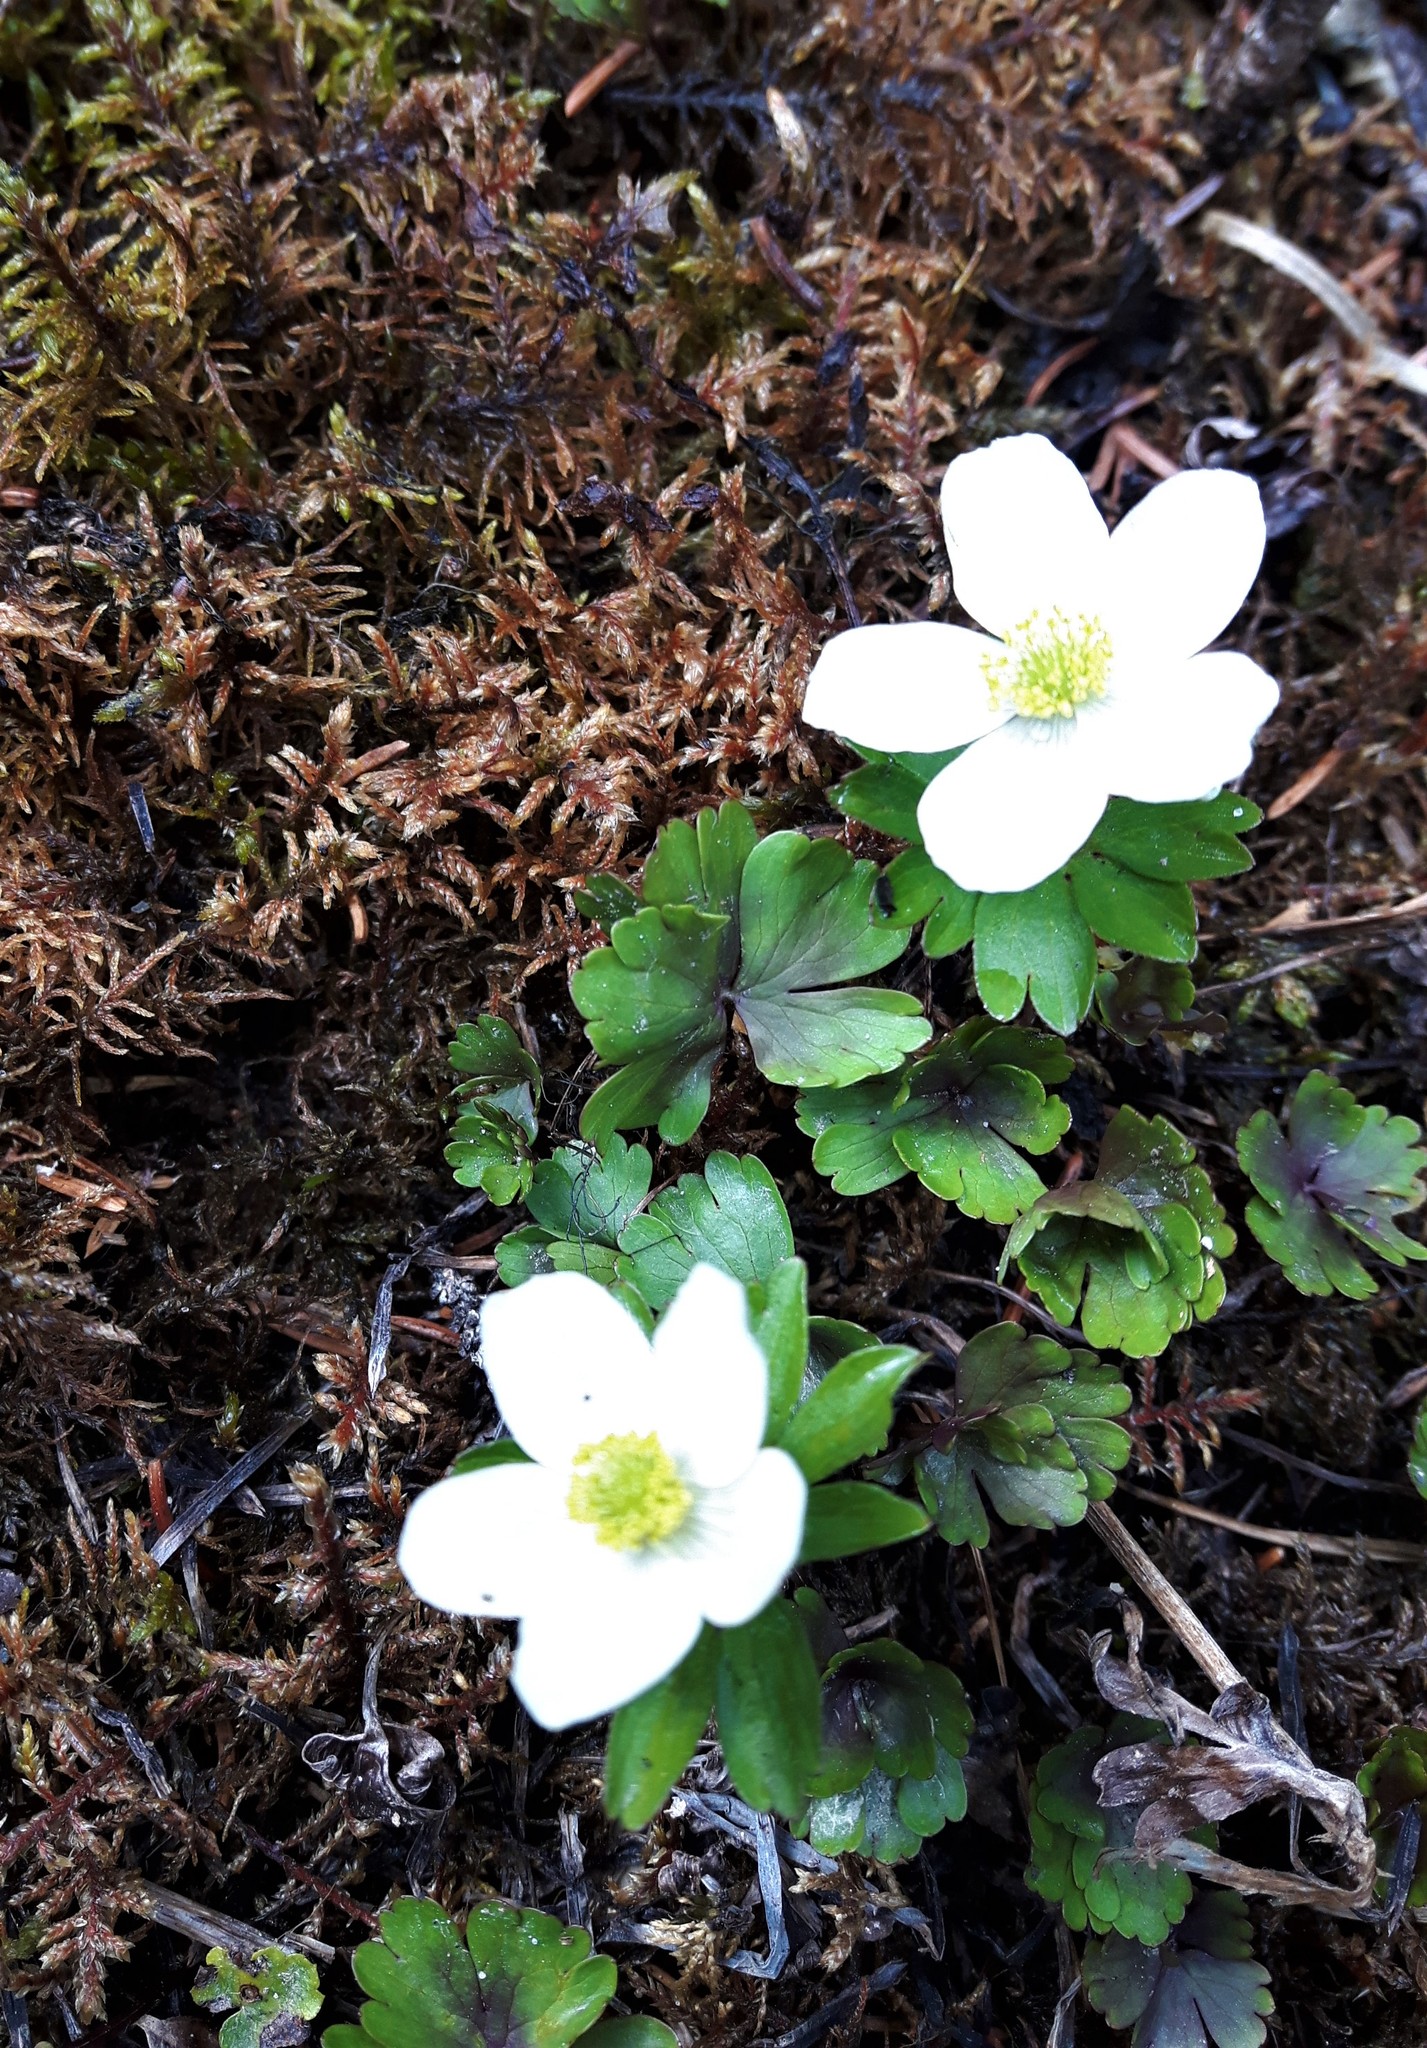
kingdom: Plantae
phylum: Tracheophyta
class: Magnoliopsida
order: Ranunculales
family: Ranunculaceae
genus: Anemone
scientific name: Anemone parviflora
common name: Northern anemone
